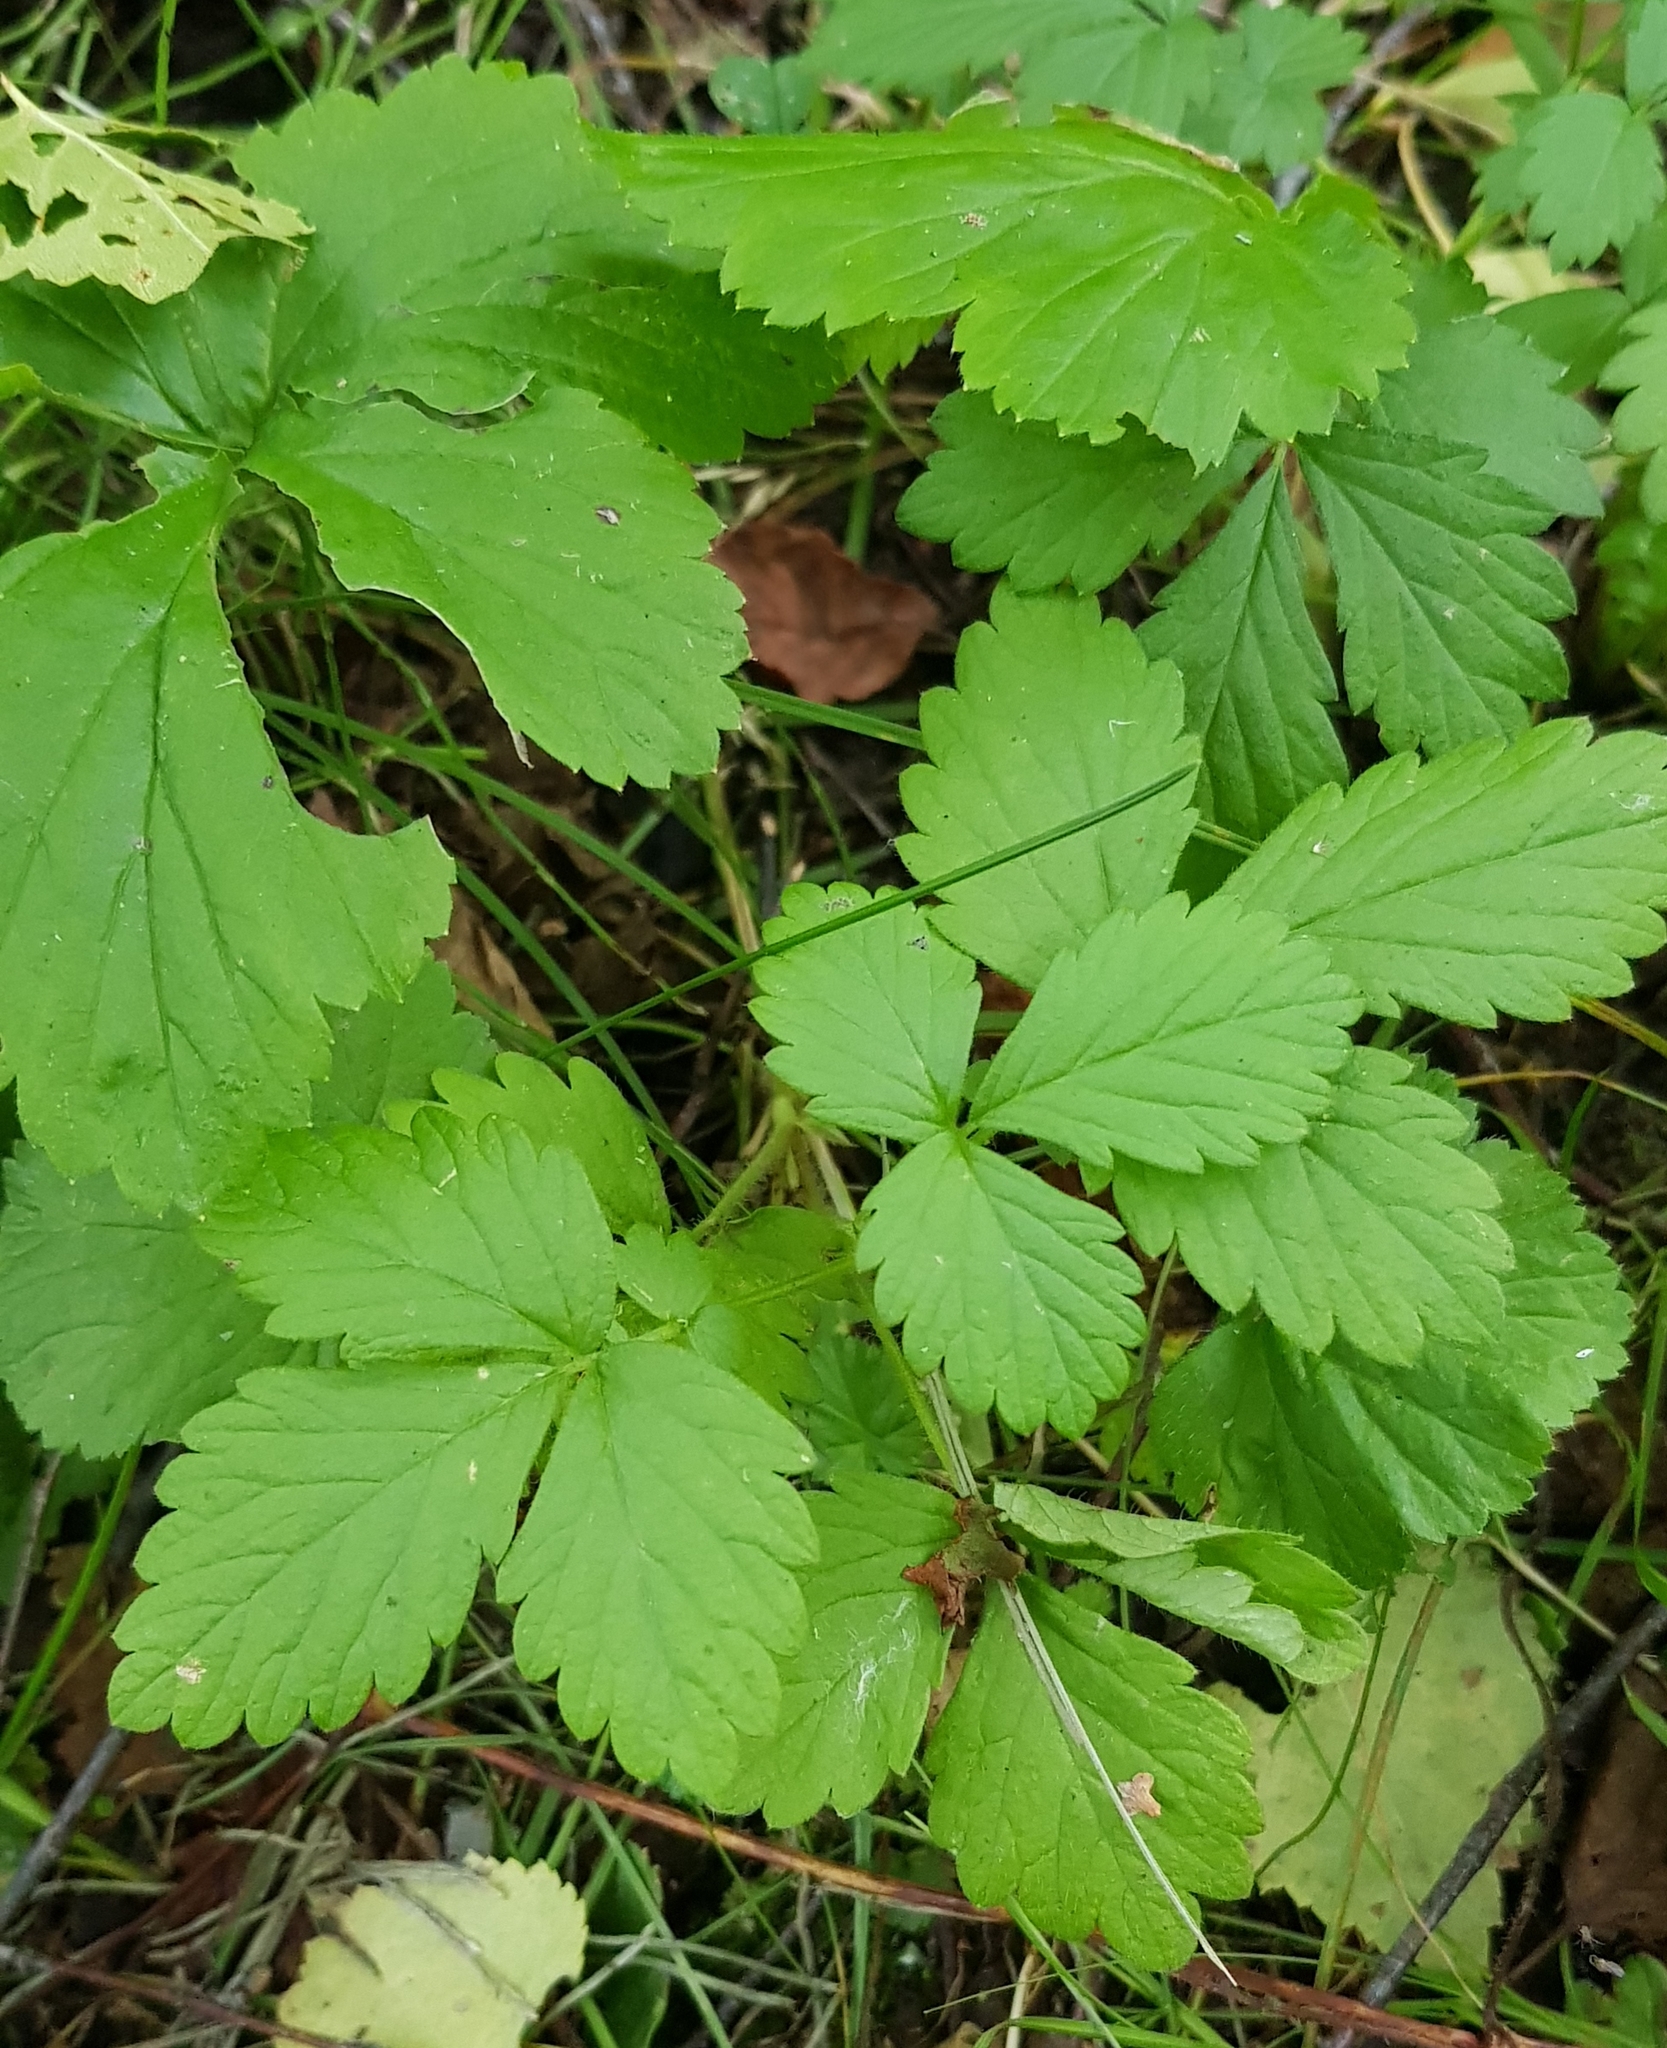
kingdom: Plantae
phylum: Tracheophyta
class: Magnoliopsida
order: Rosales
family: Rosaceae
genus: Rubus
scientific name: Rubus saxatilis
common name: Stone bramble
